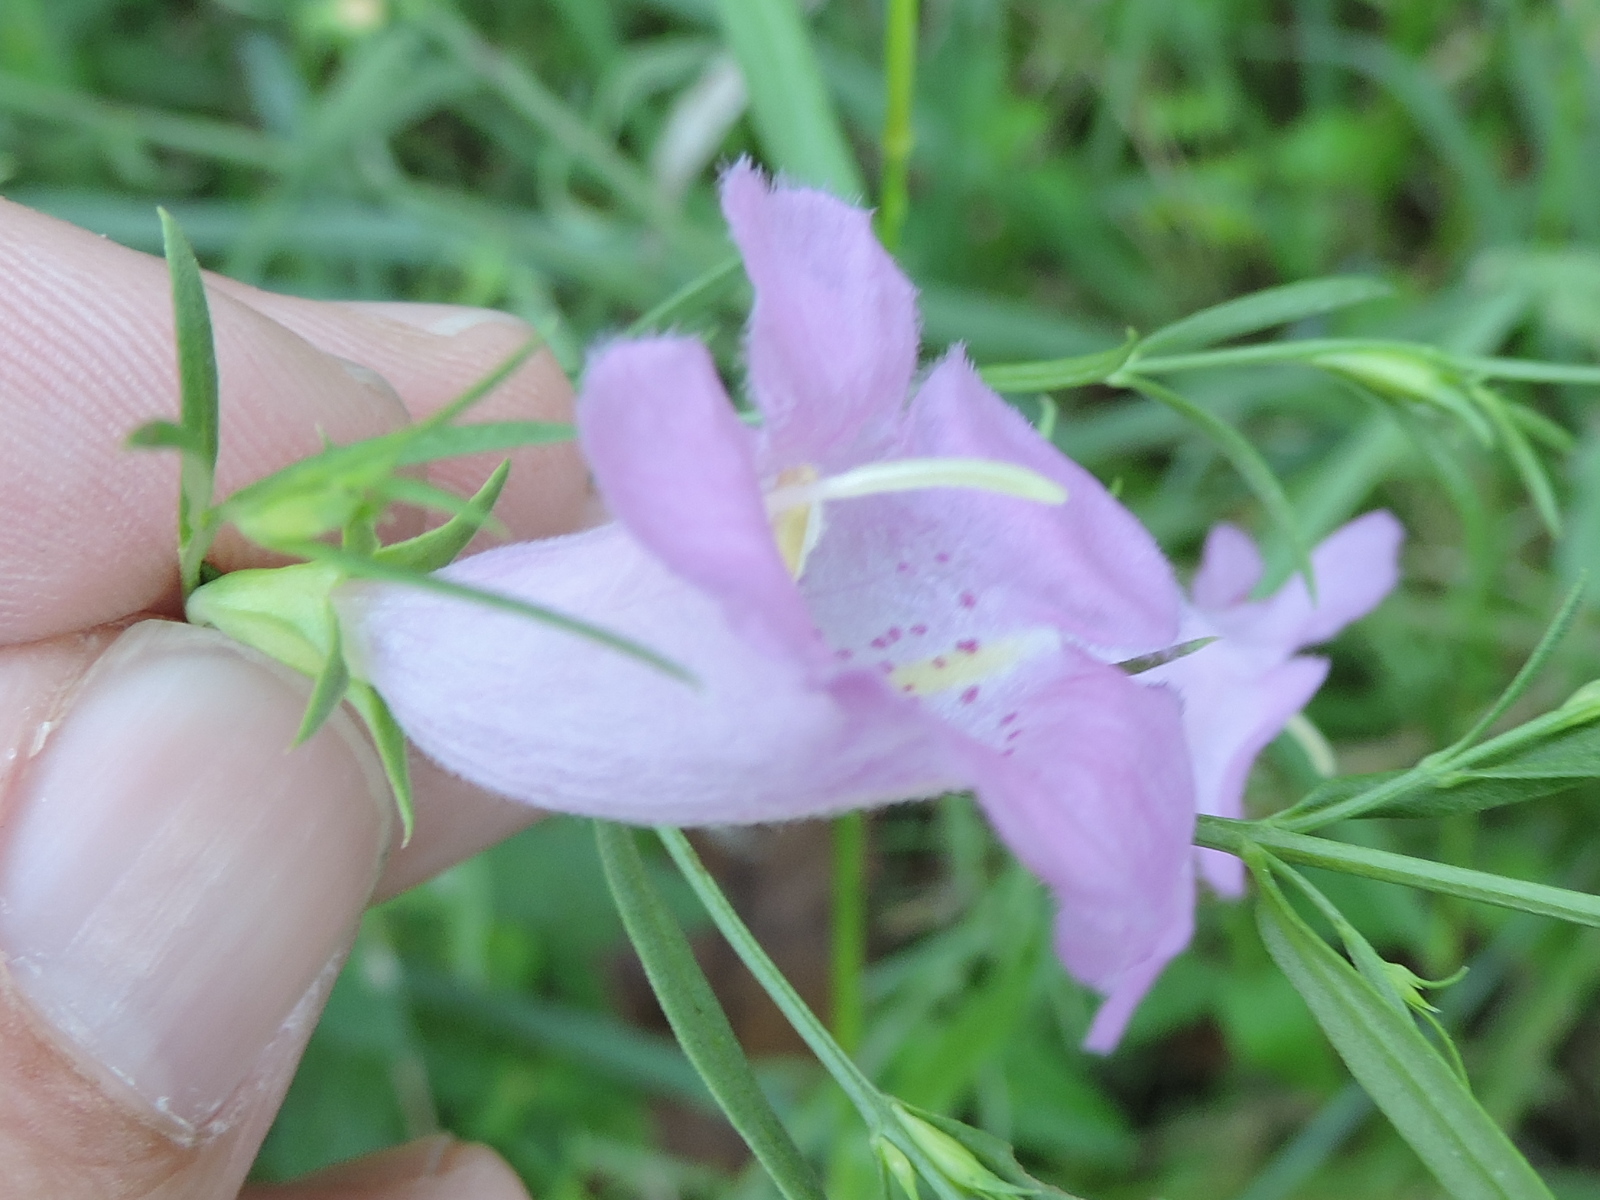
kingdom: Plantae
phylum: Tracheophyta
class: Magnoliopsida
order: Lamiales
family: Orobanchaceae
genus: Agalinis
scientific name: Agalinis heterophylla
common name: Prairie agalinis
